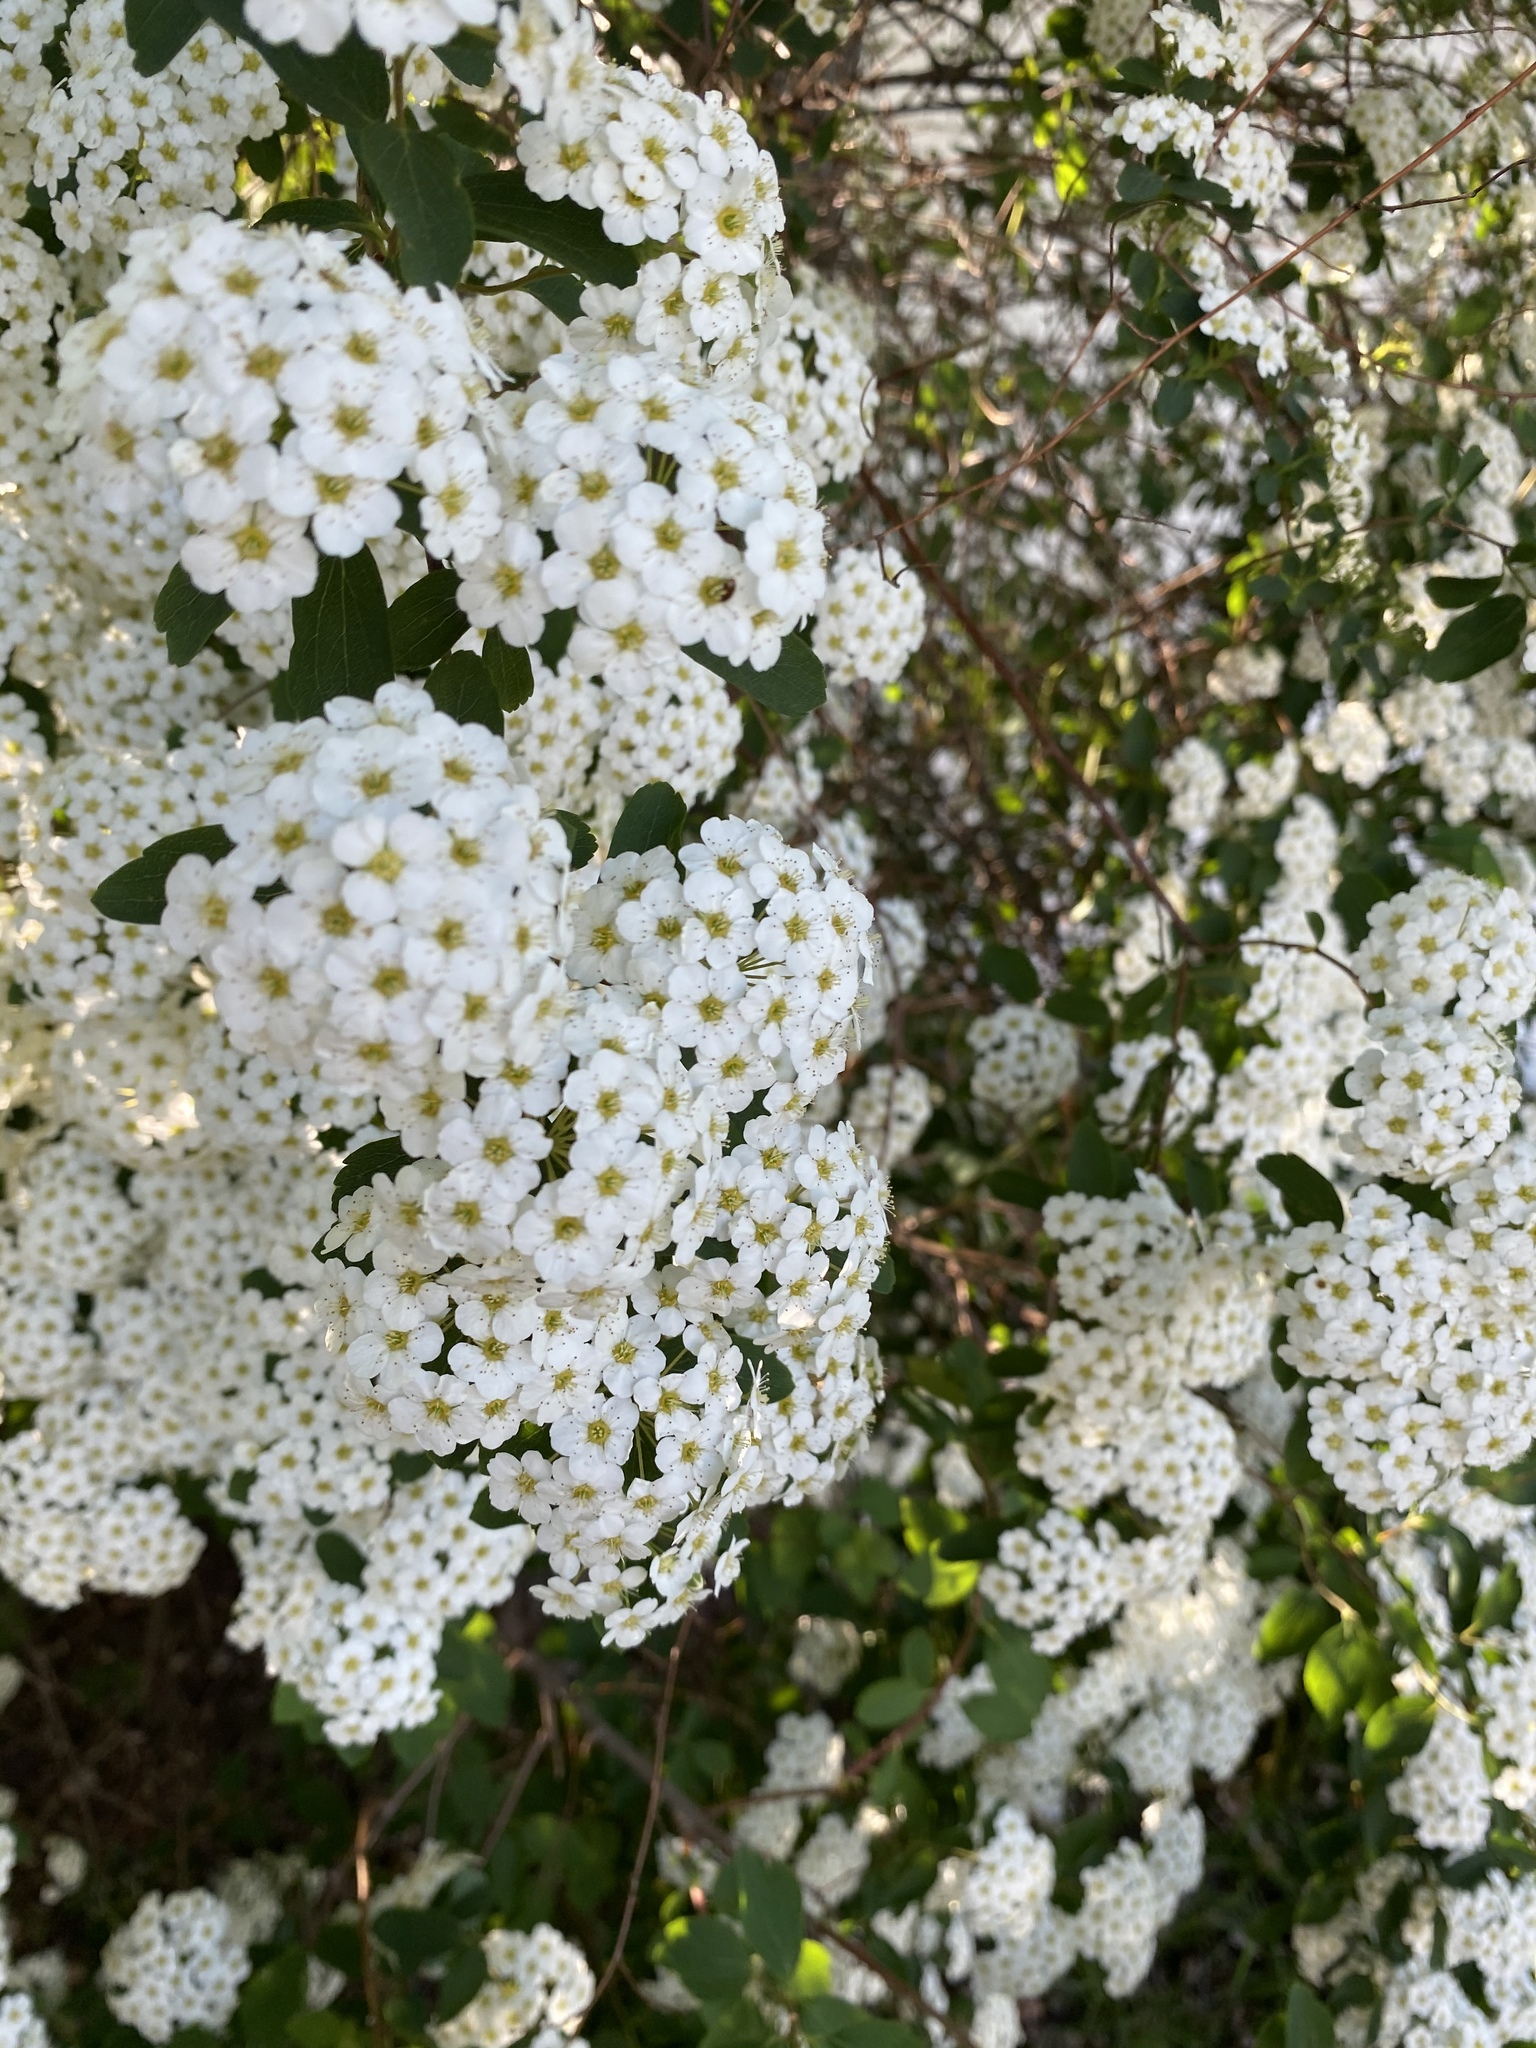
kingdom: Plantae
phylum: Tracheophyta
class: Magnoliopsida
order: Rosales
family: Rosaceae
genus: Spiraea
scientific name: Spiraea vanhouttei
